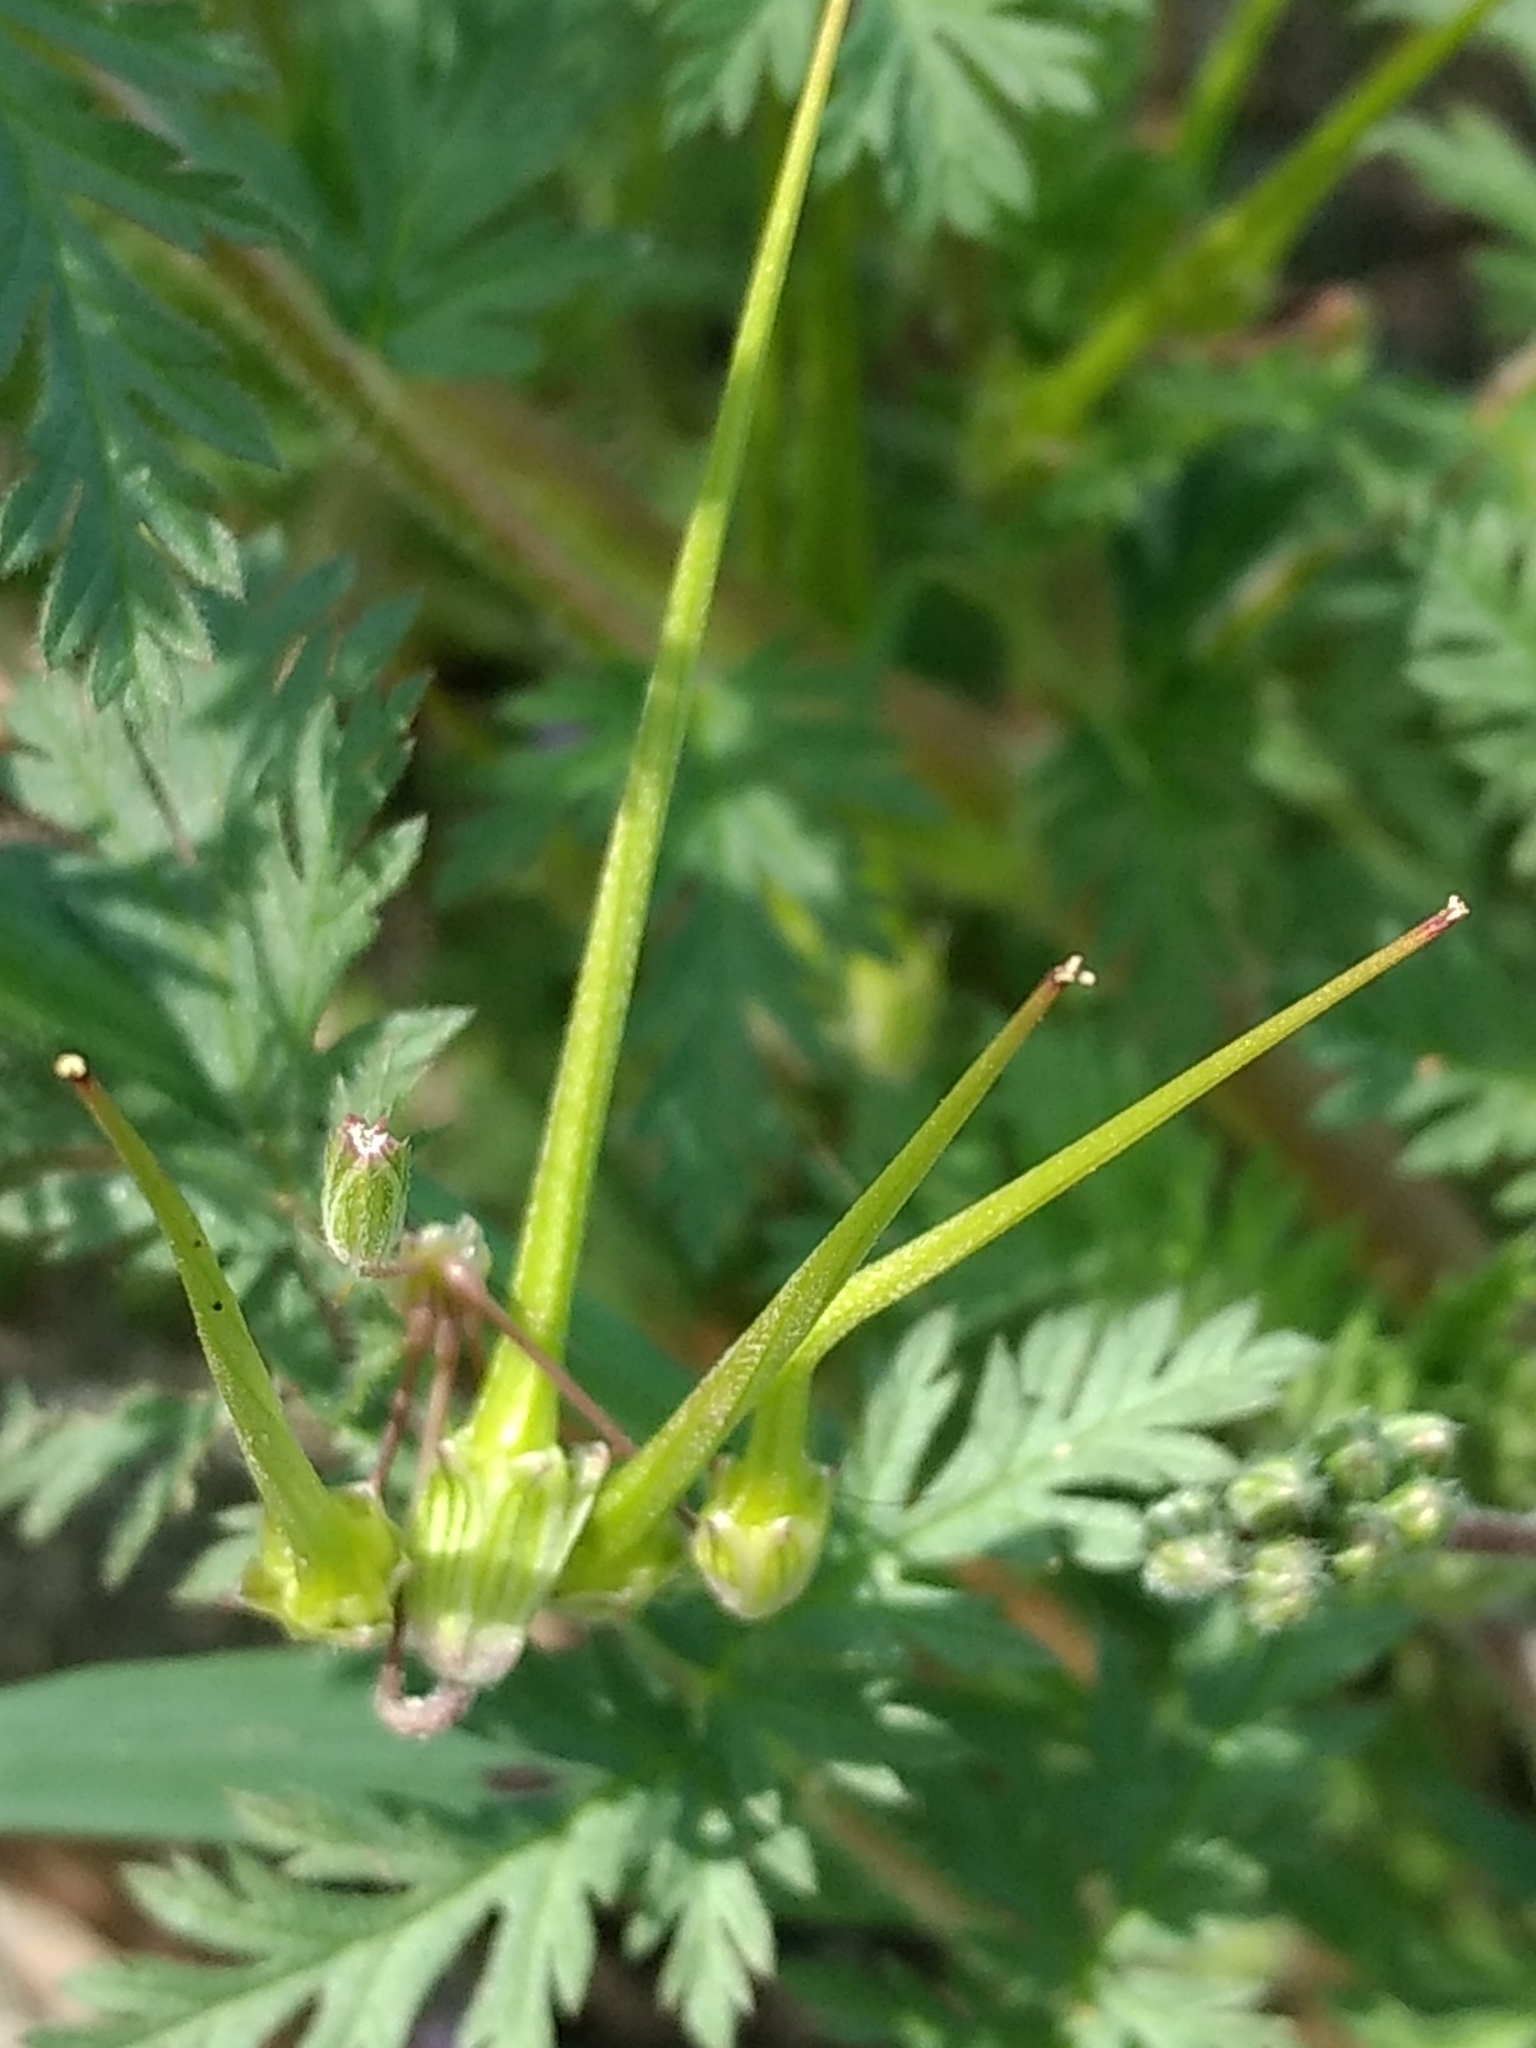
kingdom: Plantae
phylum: Tracheophyta
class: Magnoliopsida
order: Geraniales
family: Geraniaceae
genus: Erodium
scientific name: Erodium cicutarium
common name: Common stork's-bill
